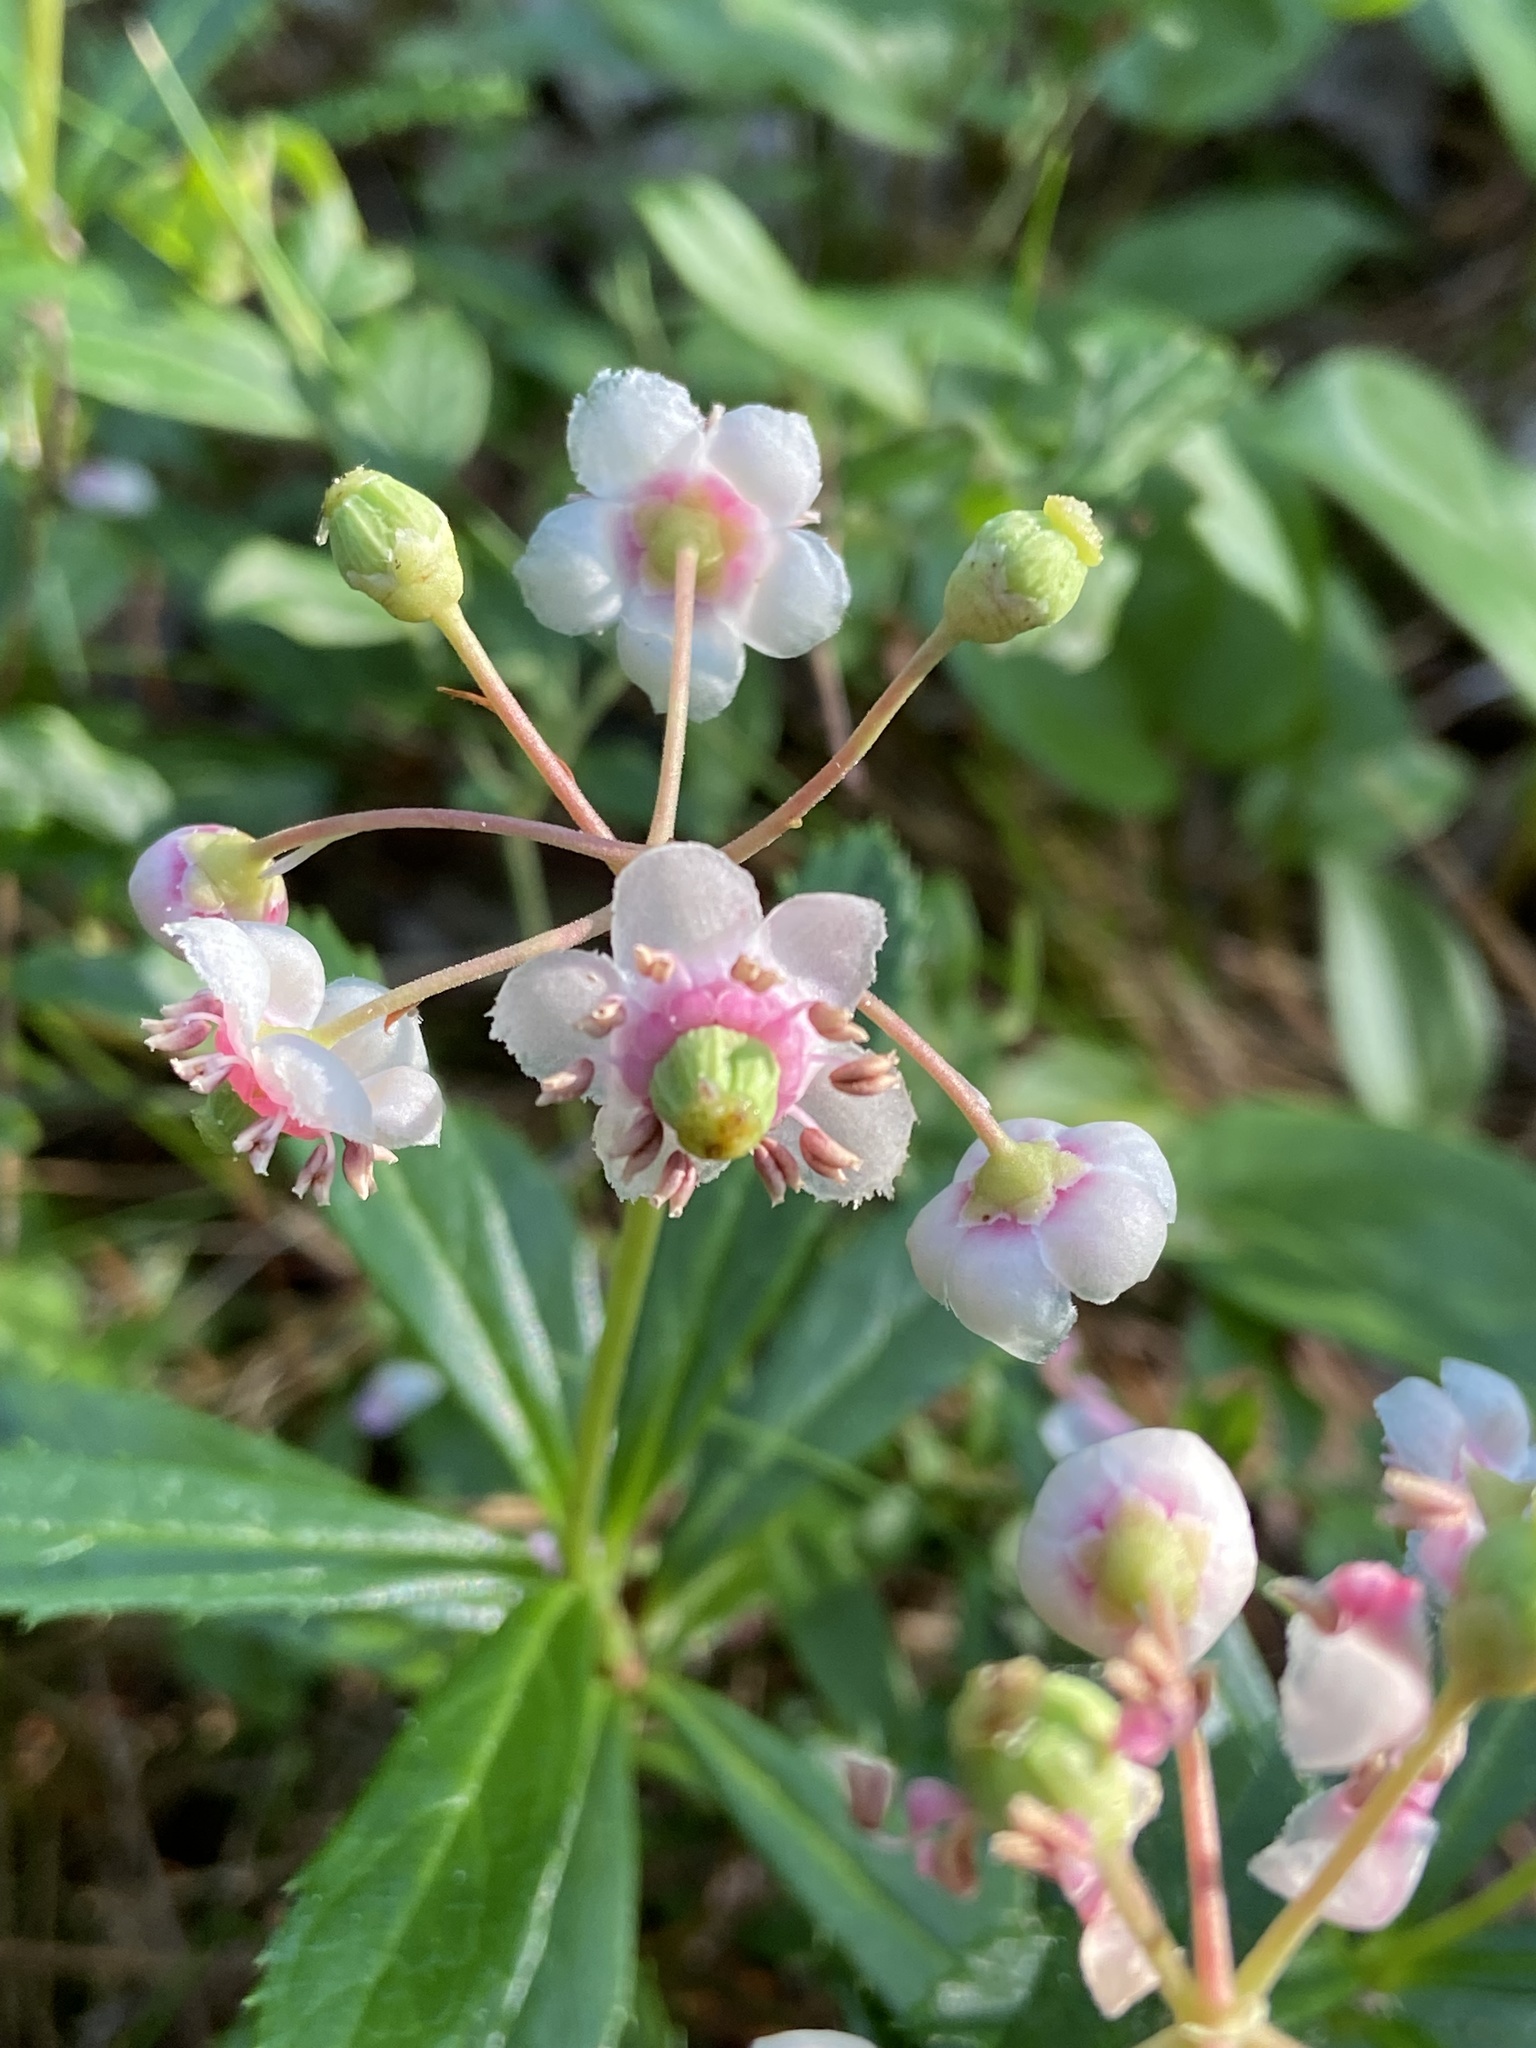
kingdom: Plantae
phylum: Tracheophyta
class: Magnoliopsida
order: Ericales
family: Ericaceae
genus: Chimaphila
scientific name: Chimaphila umbellata
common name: Pipsissewa
